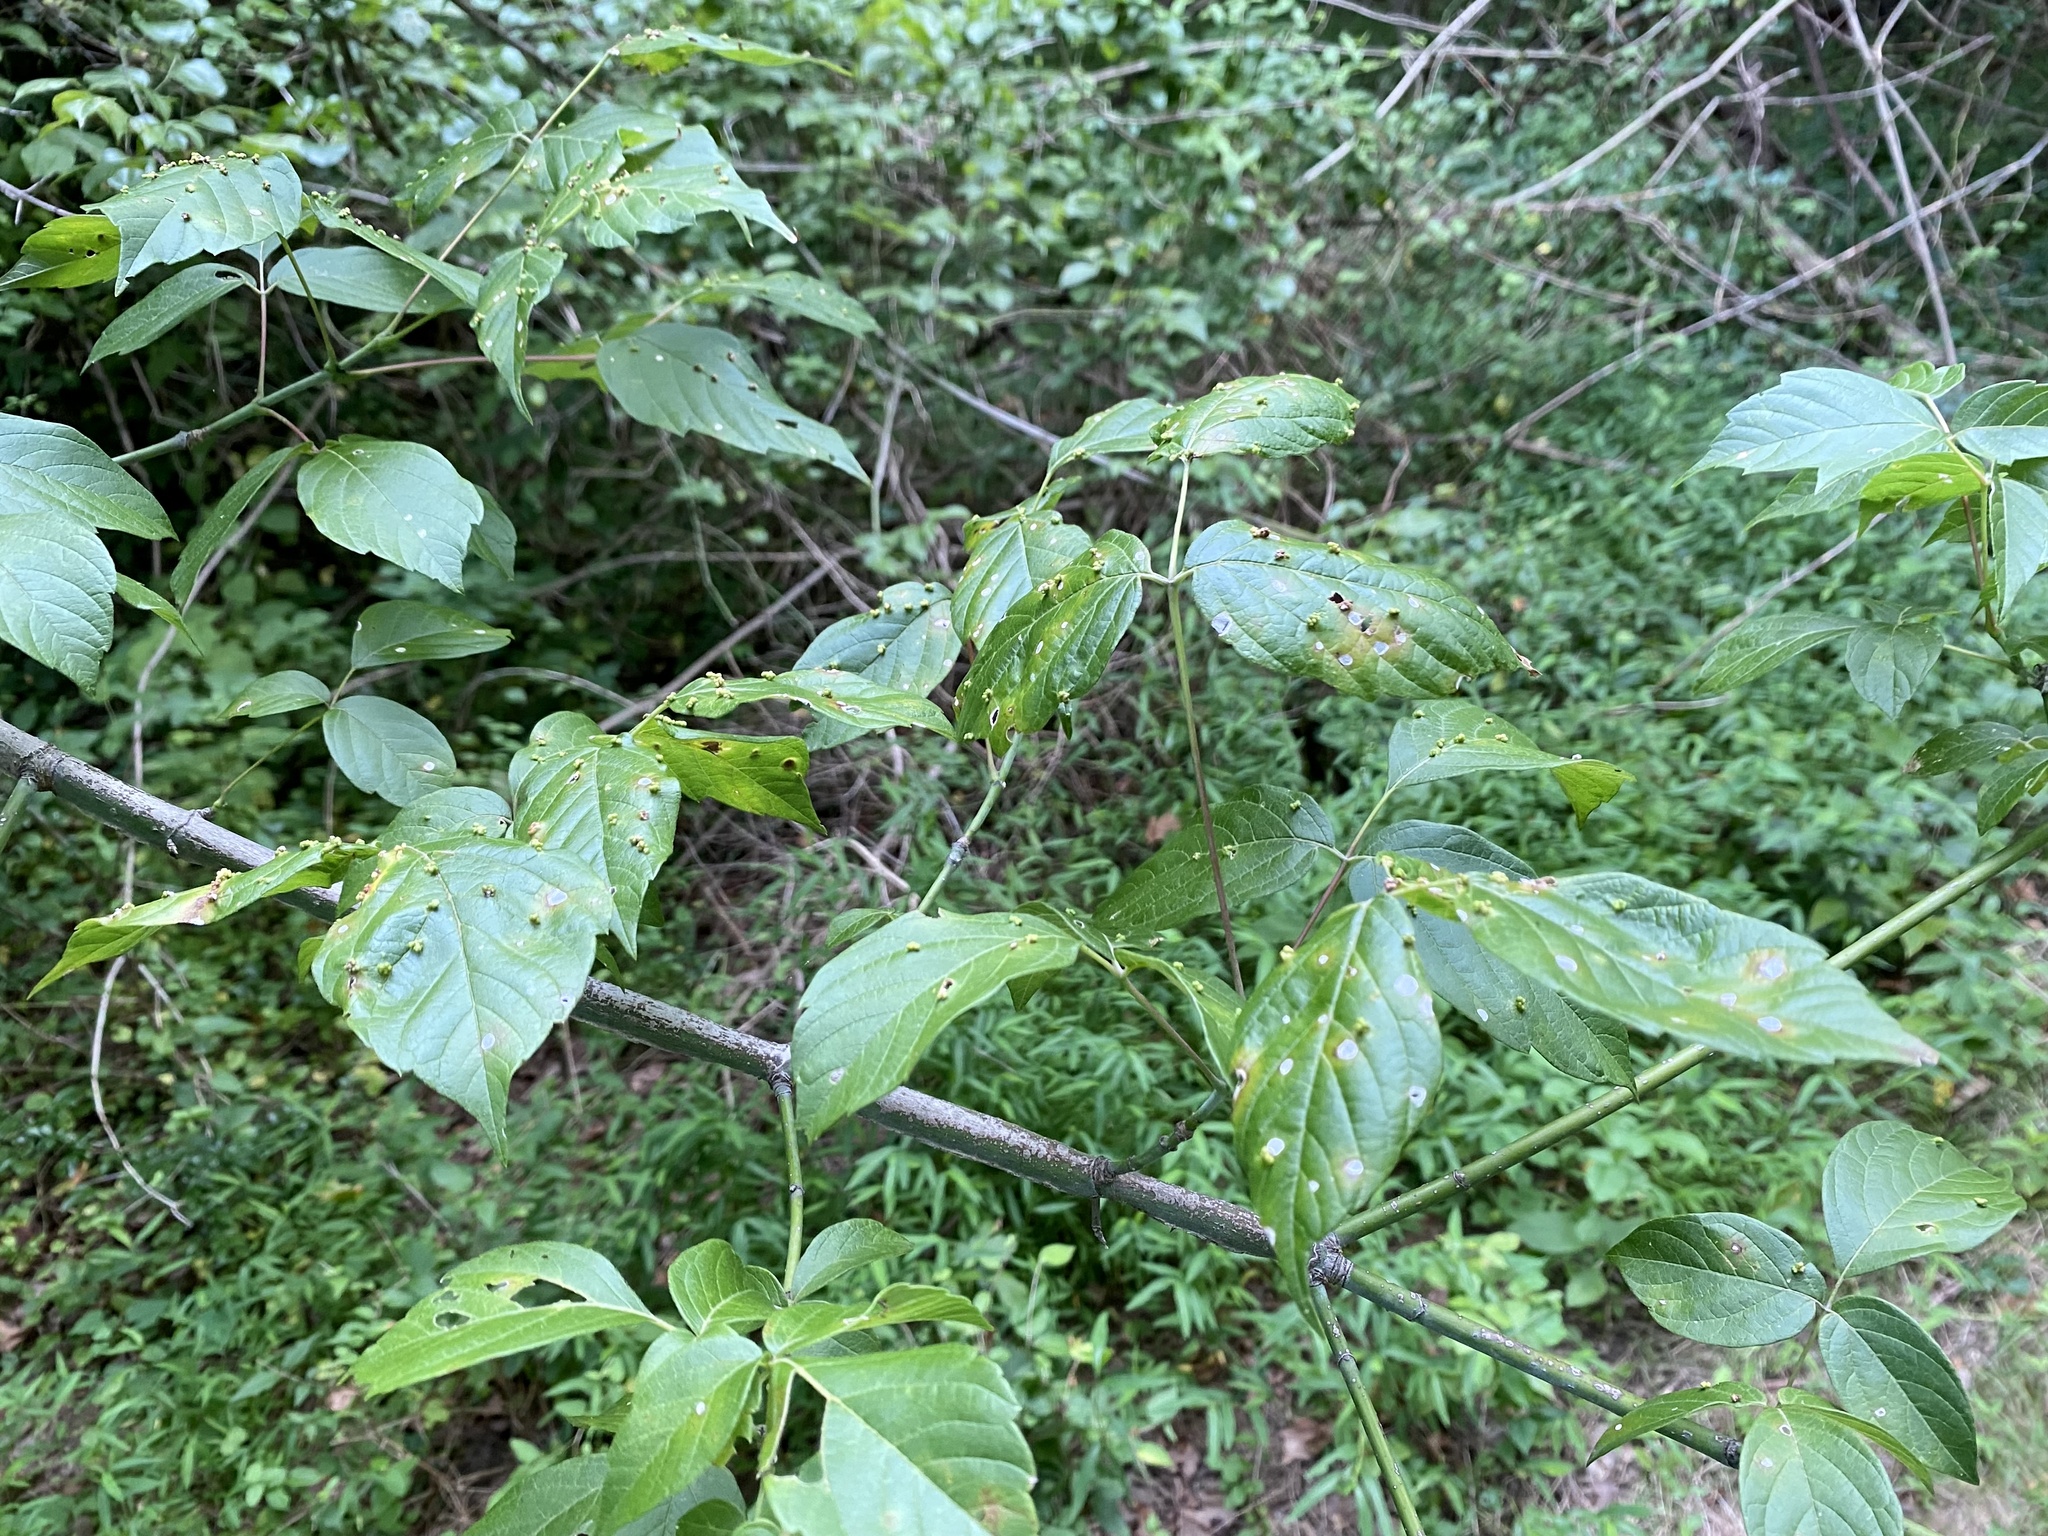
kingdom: Animalia
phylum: Arthropoda
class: Arachnida
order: Trombidiformes
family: Eriophyidae
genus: Aceria
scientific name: Aceria
